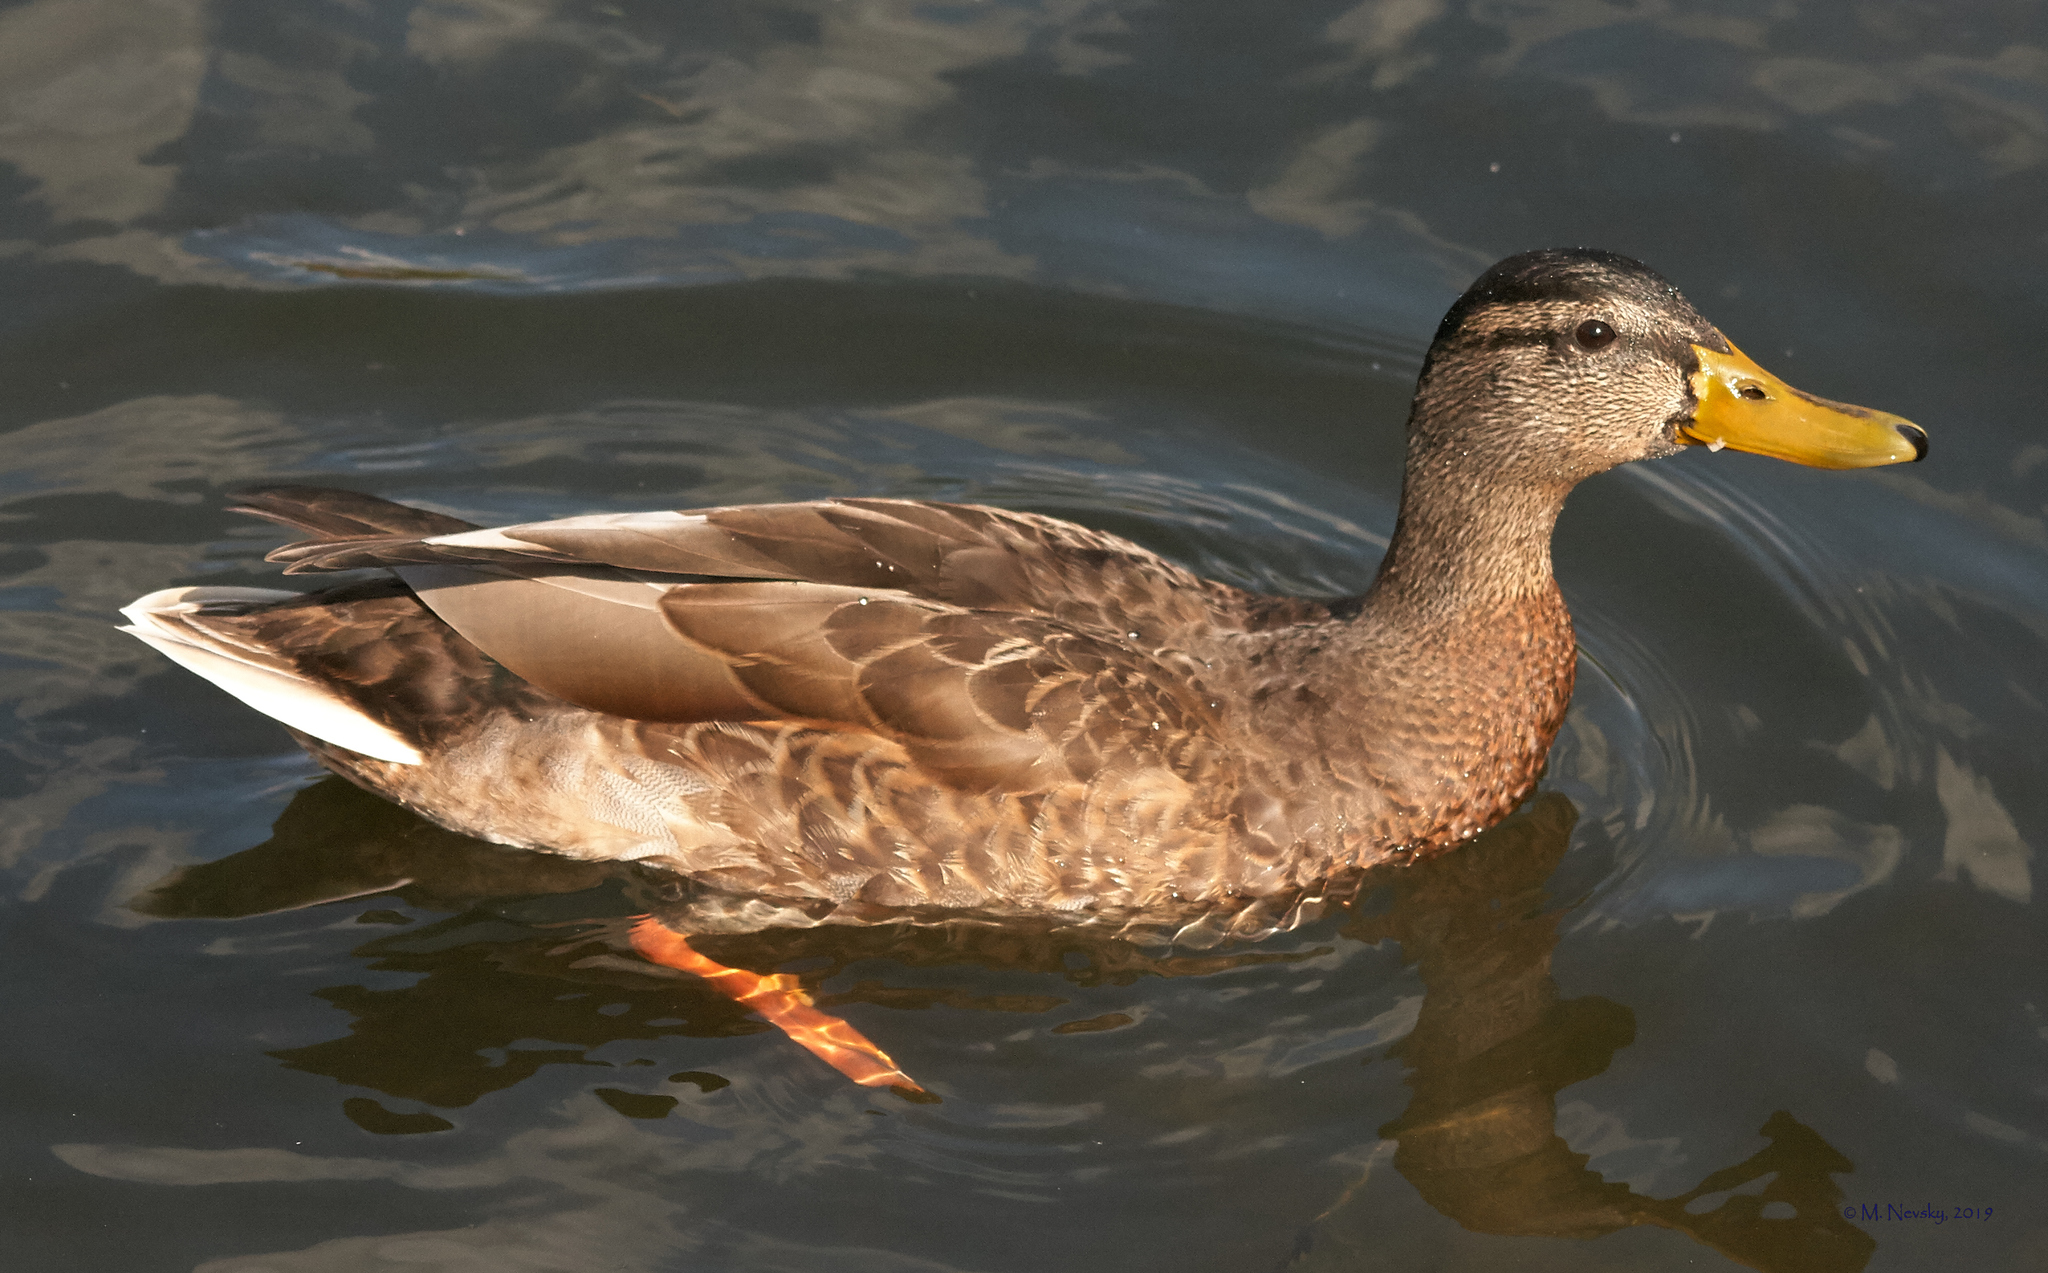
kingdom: Animalia
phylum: Chordata
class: Aves
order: Anseriformes
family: Anatidae
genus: Anas
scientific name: Anas platyrhynchos
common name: Mallard
